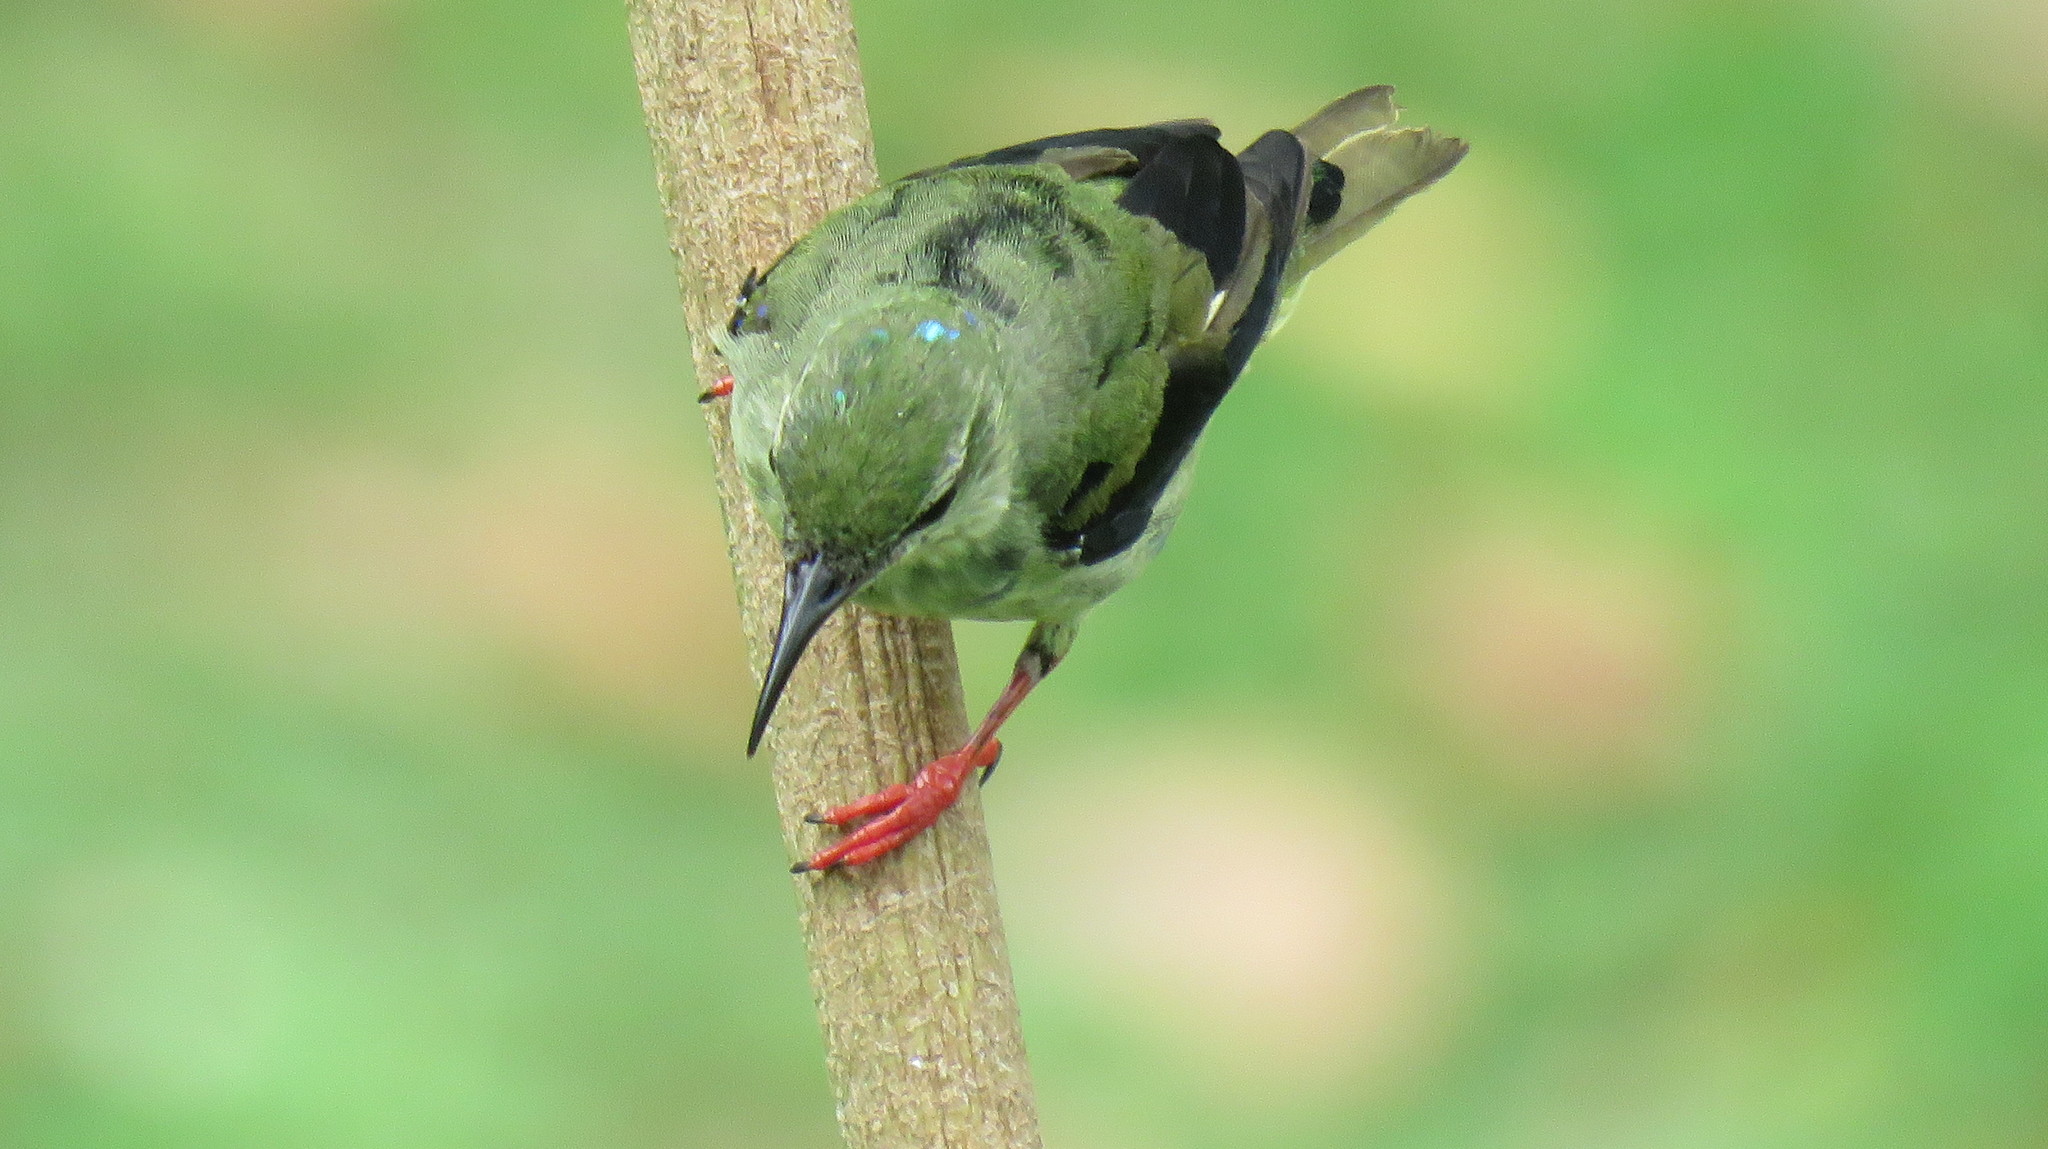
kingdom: Animalia
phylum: Chordata
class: Aves
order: Passeriformes
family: Thraupidae
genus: Cyanerpes
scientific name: Cyanerpes cyaneus
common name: Red-legged honeycreeper
